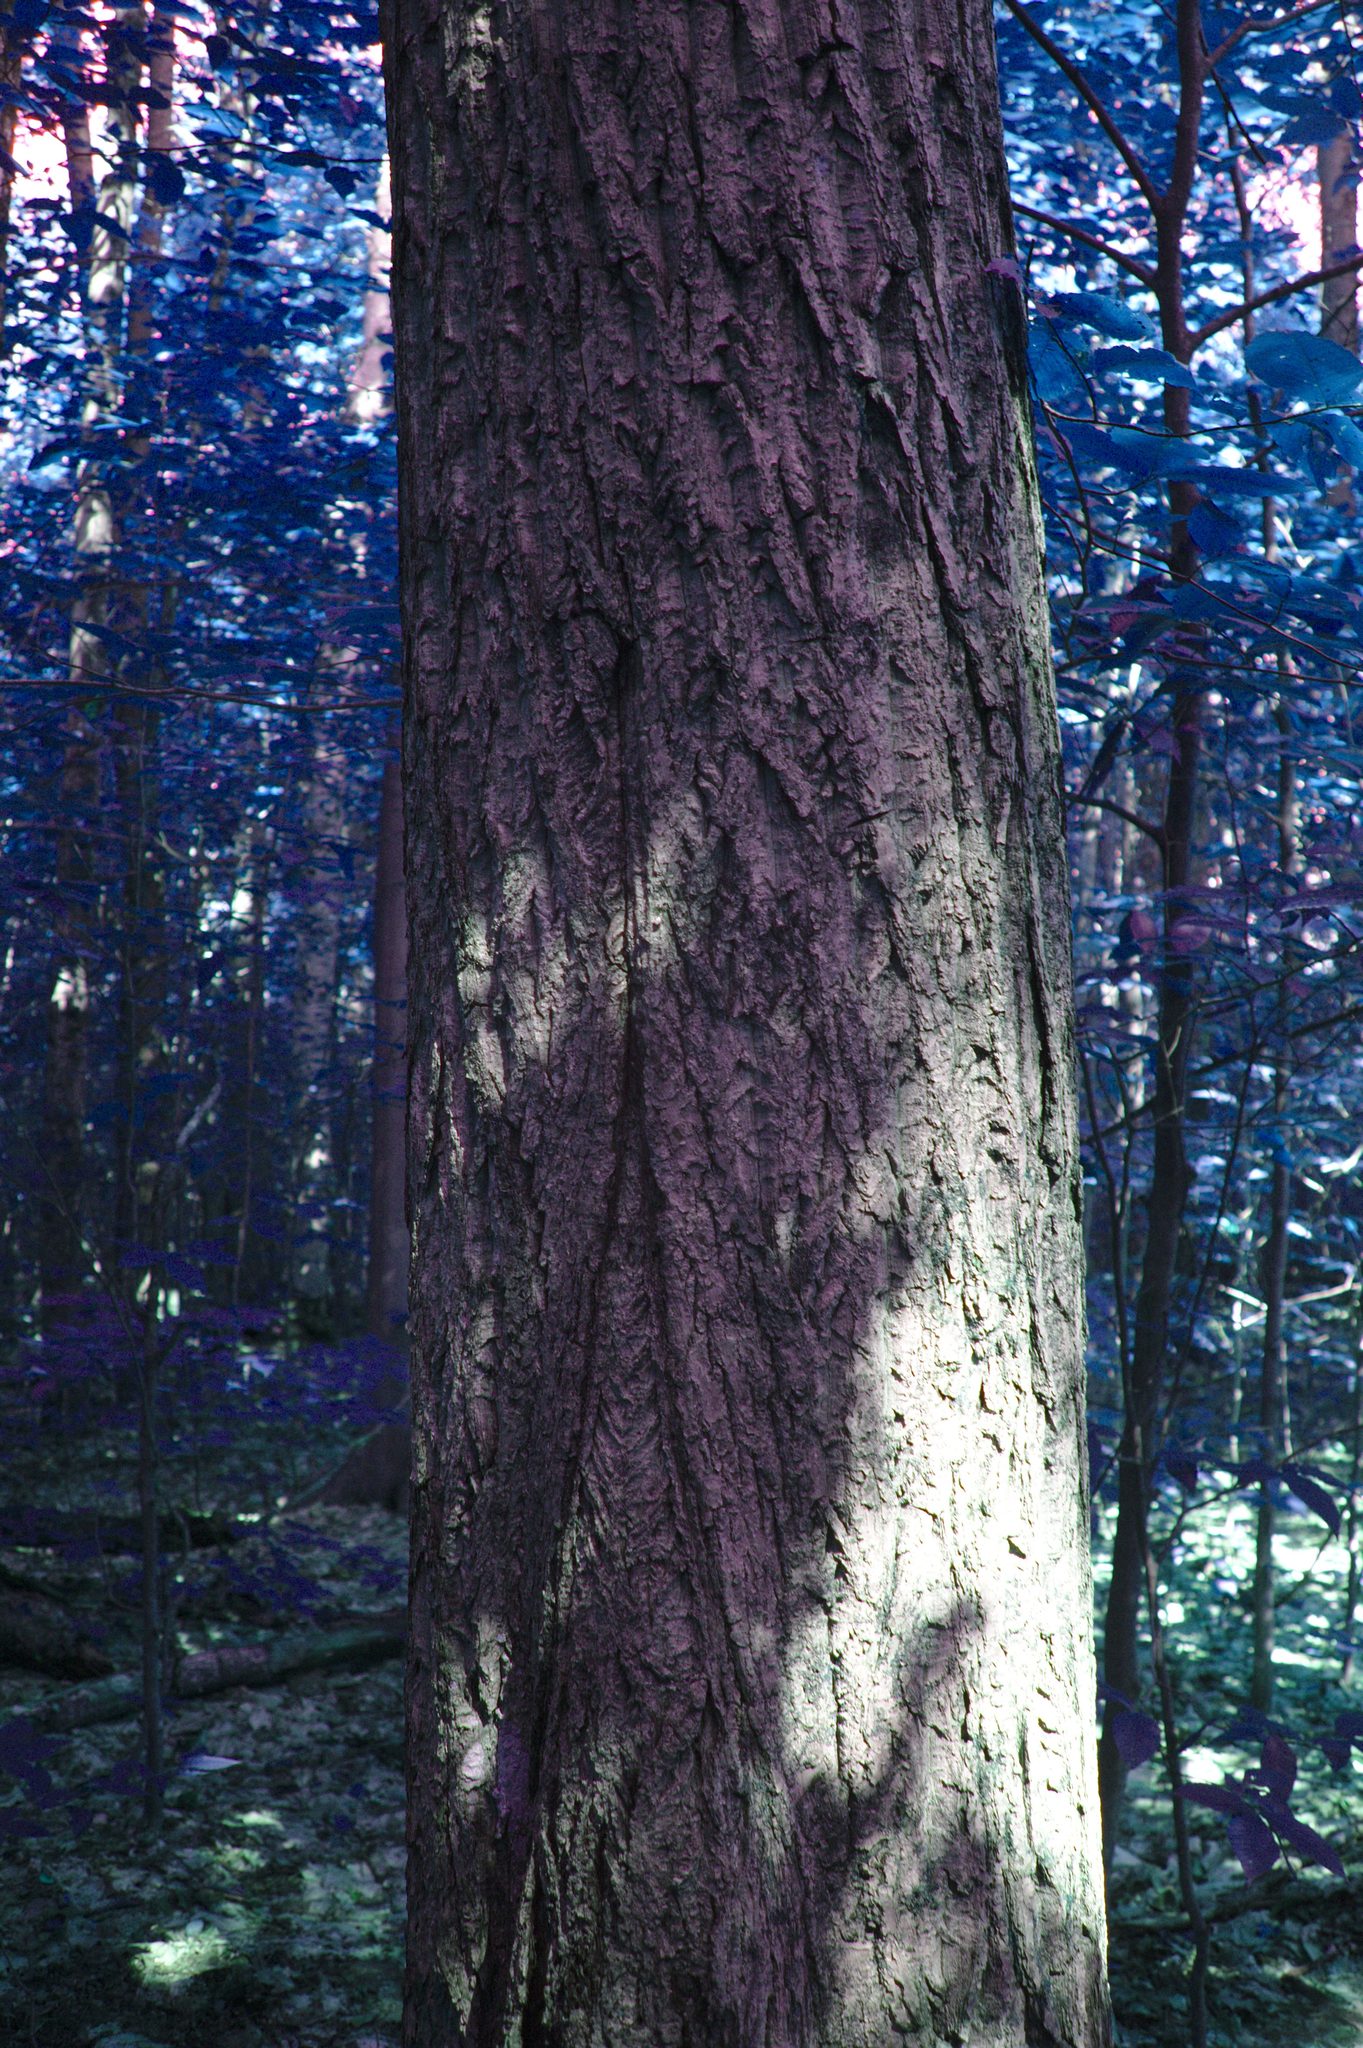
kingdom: Plantae
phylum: Tracheophyta
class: Magnoliopsida
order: Fagales
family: Juglandaceae
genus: Juglans
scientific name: Juglans cinerea
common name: Butternut
